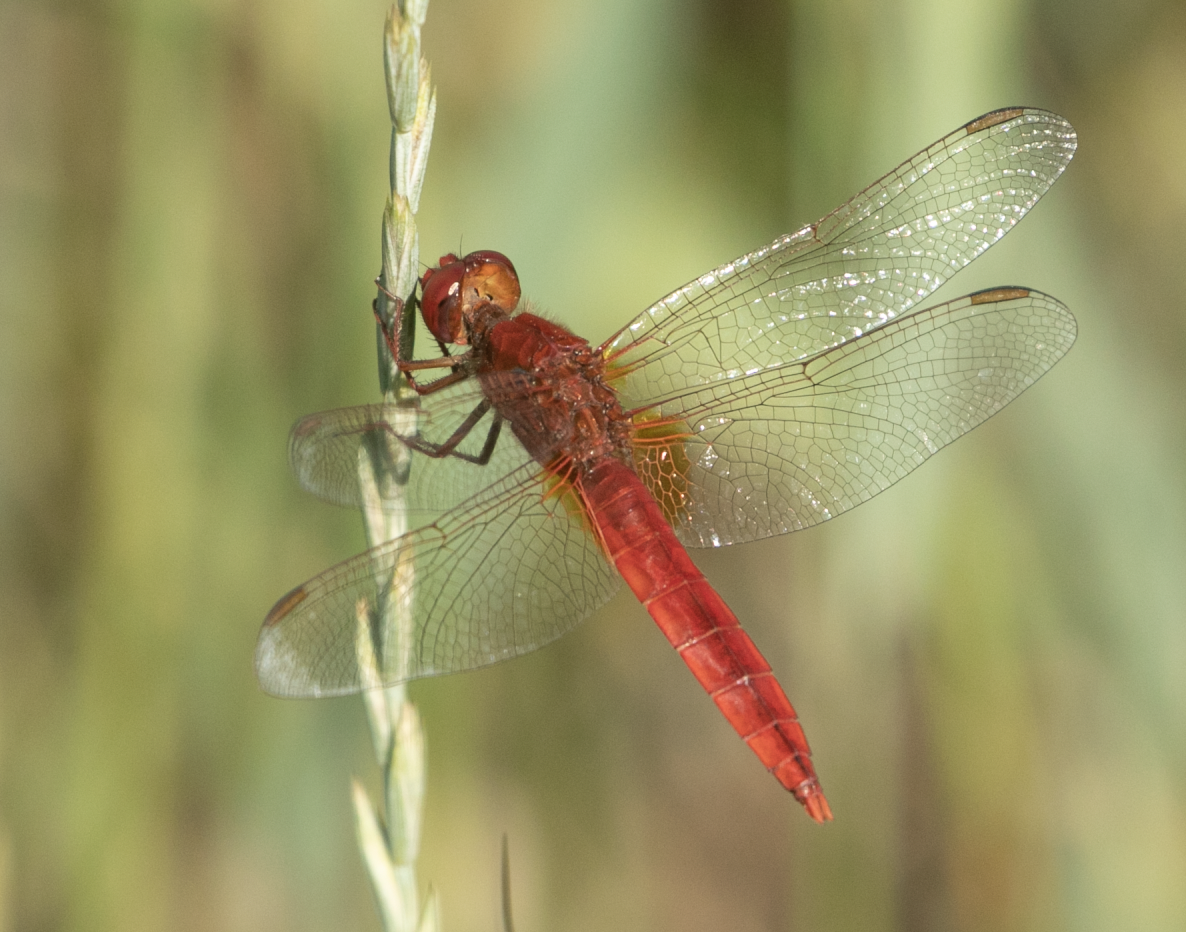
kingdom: Animalia
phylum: Arthropoda
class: Insecta
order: Odonata
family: Libellulidae
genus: Crocothemis
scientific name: Crocothemis erythraea
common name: Scarlet dragonfly
